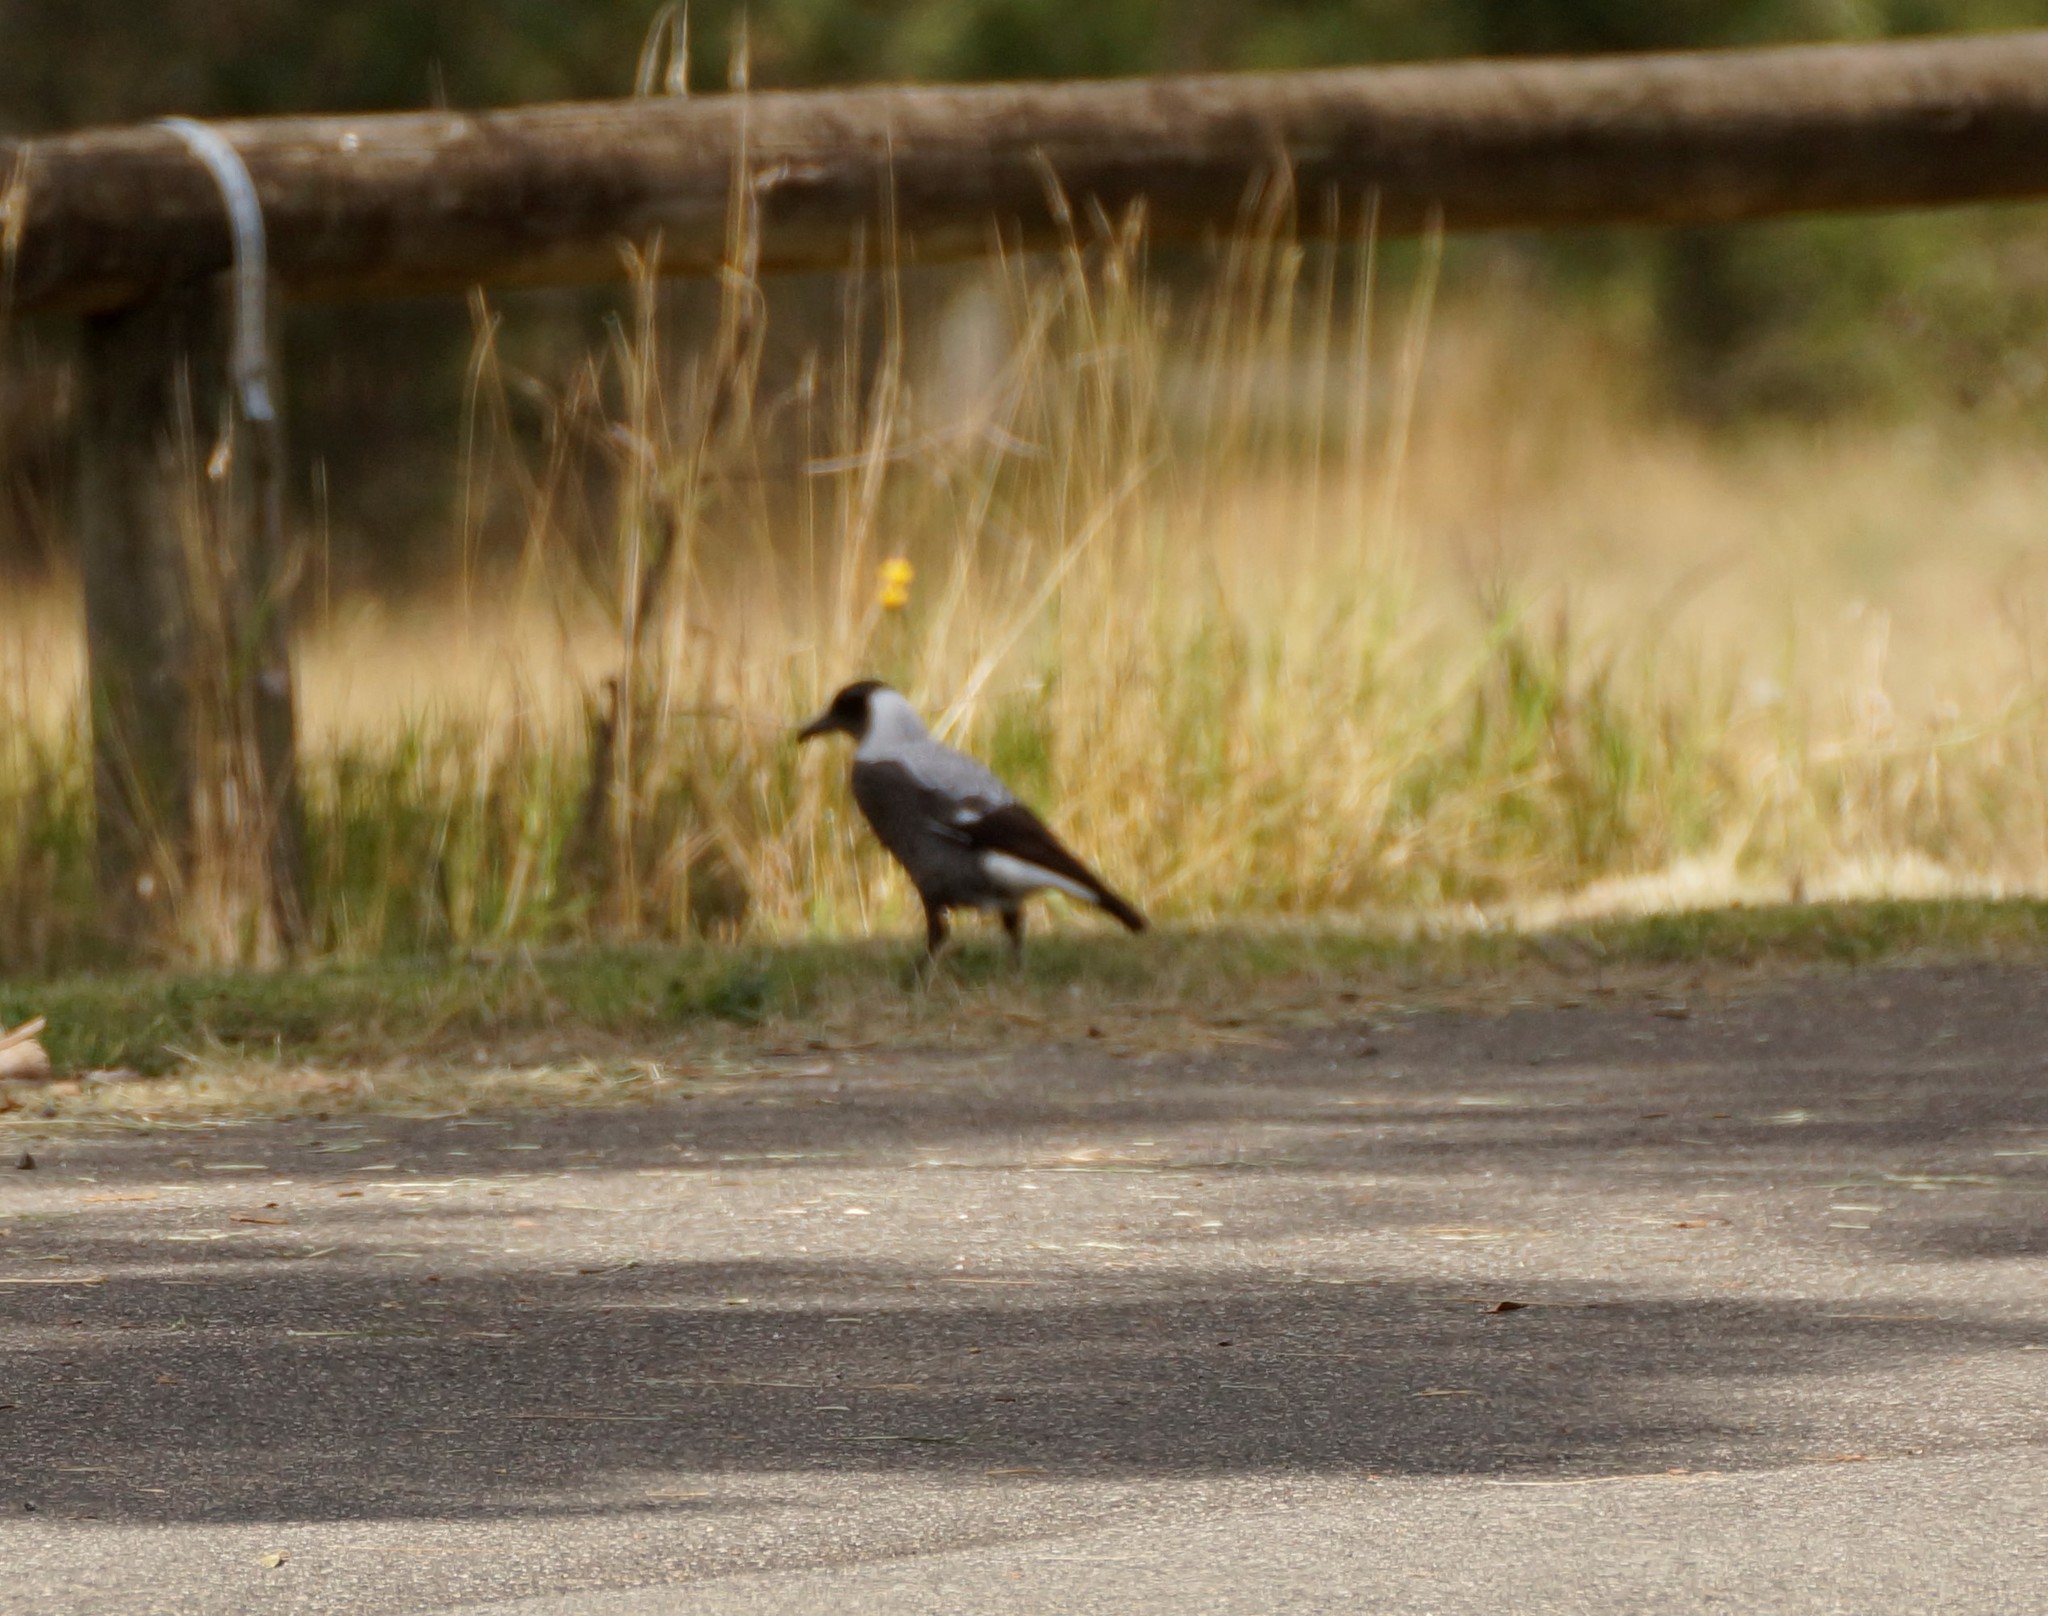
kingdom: Animalia
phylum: Chordata
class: Aves
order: Passeriformes
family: Cracticidae
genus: Gymnorhina
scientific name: Gymnorhina tibicen
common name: Australian magpie
